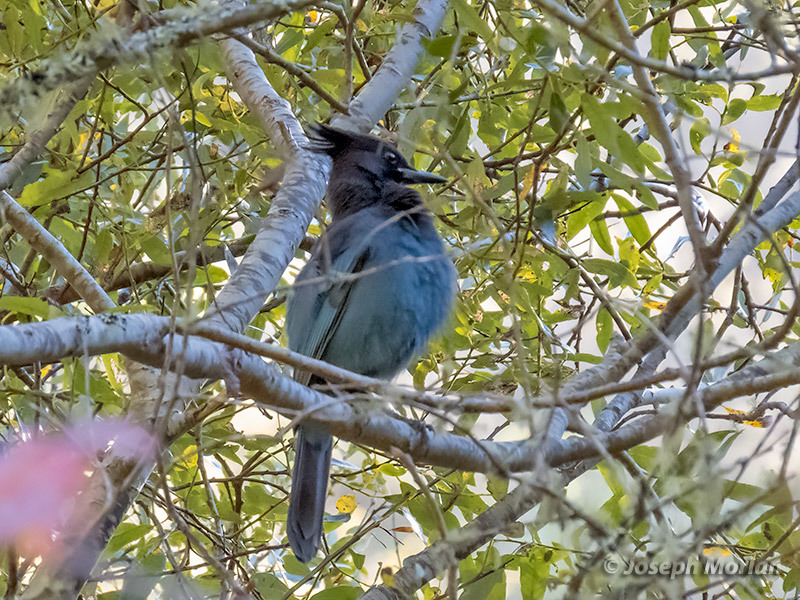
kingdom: Animalia
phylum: Chordata
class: Aves
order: Passeriformes
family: Corvidae
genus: Cyanocitta
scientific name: Cyanocitta stelleri
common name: Steller's jay
